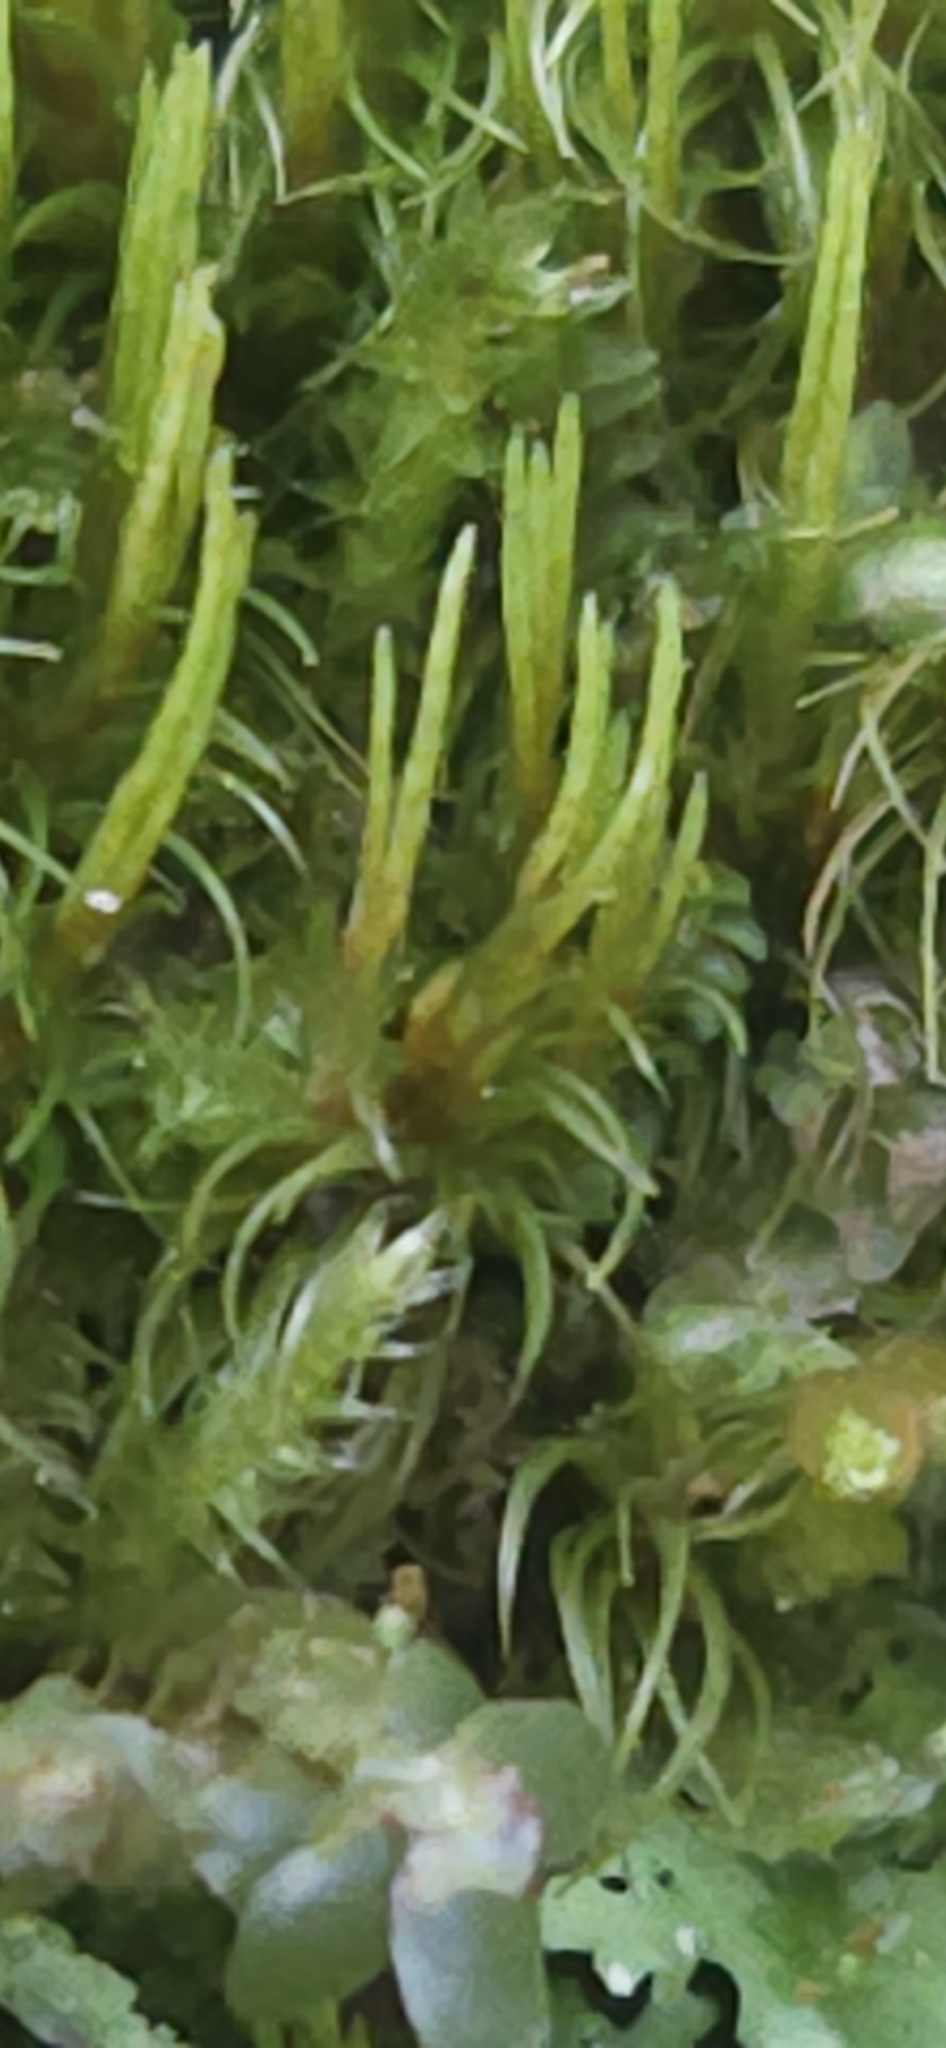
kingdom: Plantae
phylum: Bryophyta
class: Bryopsida
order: Dicranales
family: Dicranaceae
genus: Orthodicranum
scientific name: Orthodicranum flagellare
